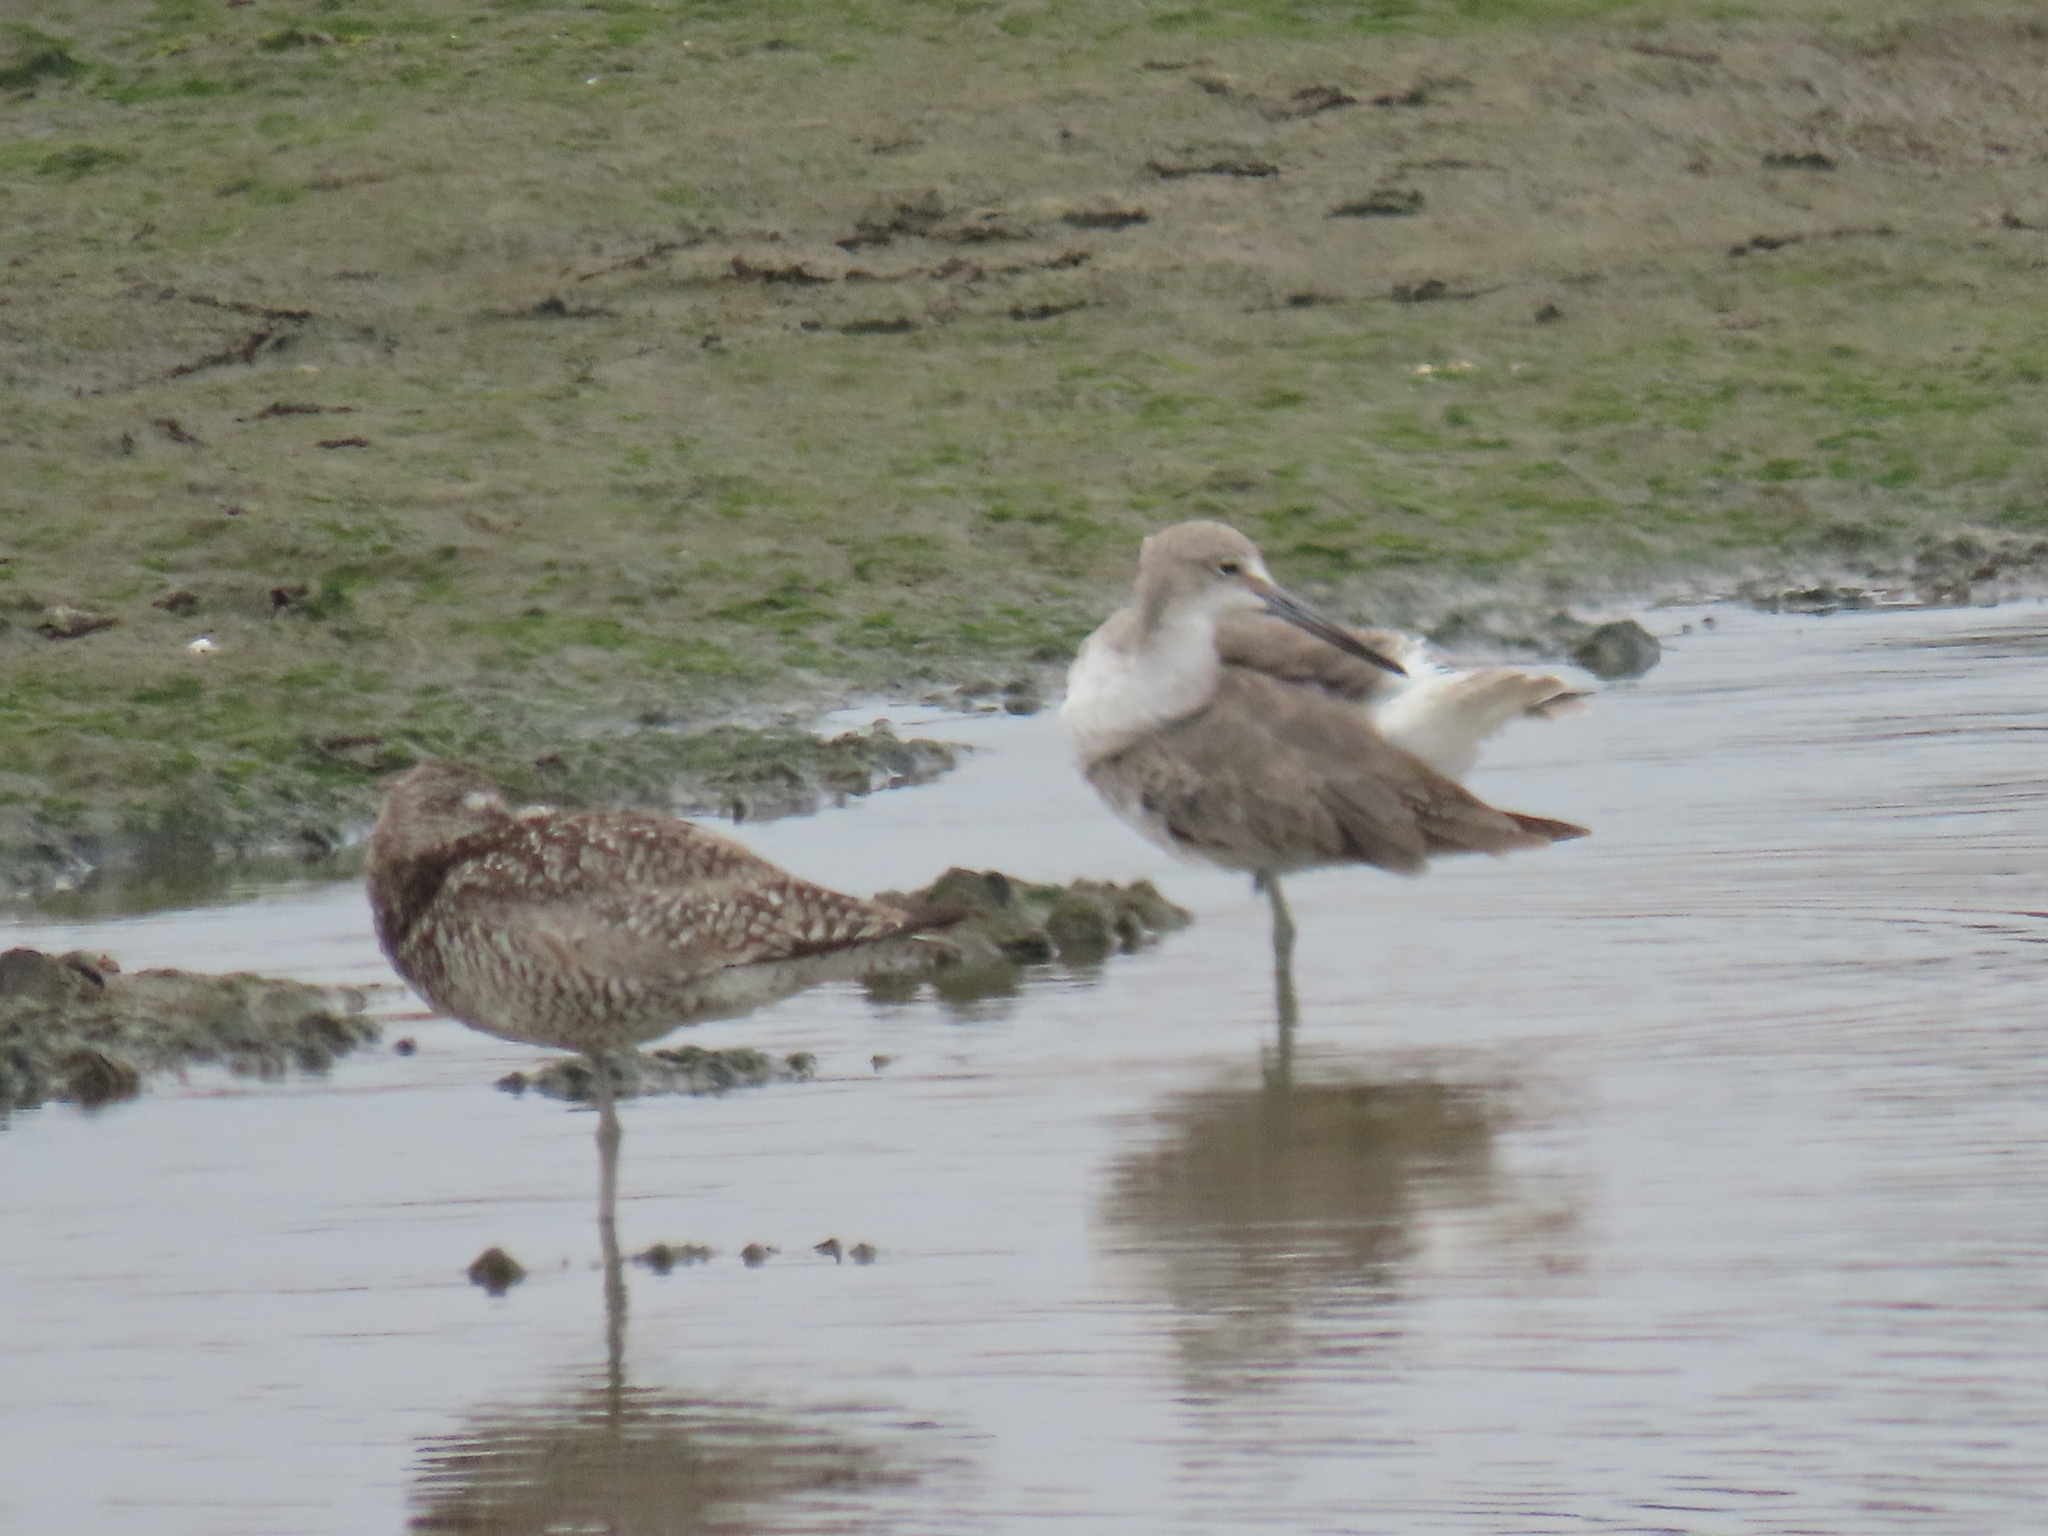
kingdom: Animalia
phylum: Chordata
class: Aves
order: Charadriiformes
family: Scolopacidae
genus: Tringa
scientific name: Tringa semipalmata
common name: Willet
